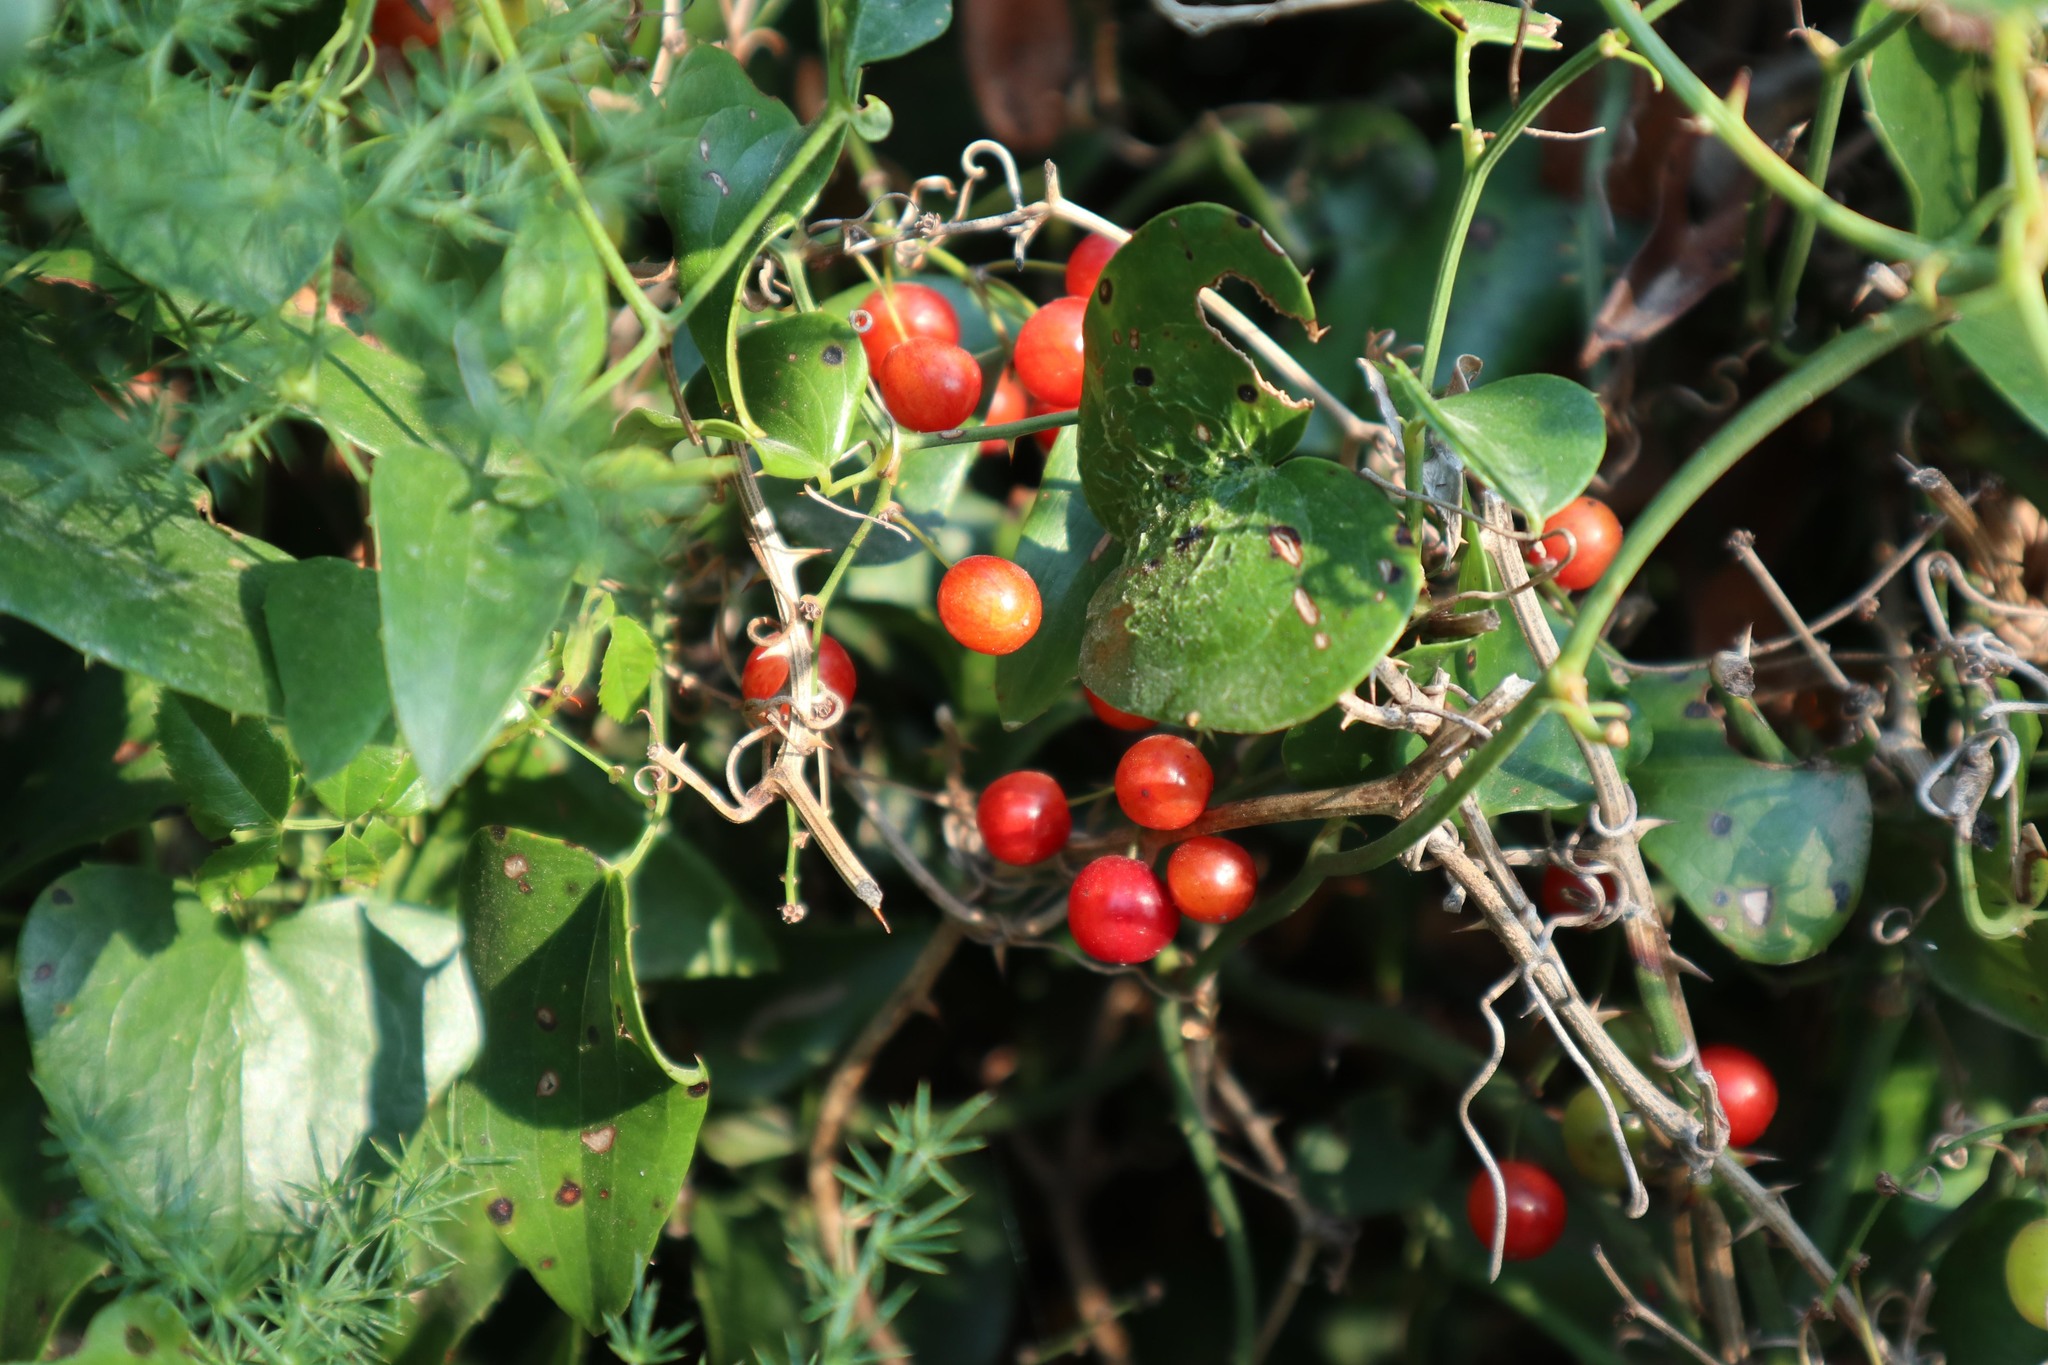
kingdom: Plantae
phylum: Tracheophyta
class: Liliopsida
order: Liliales
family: Smilacaceae
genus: Smilax
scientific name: Smilax aspera
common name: Common smilax
